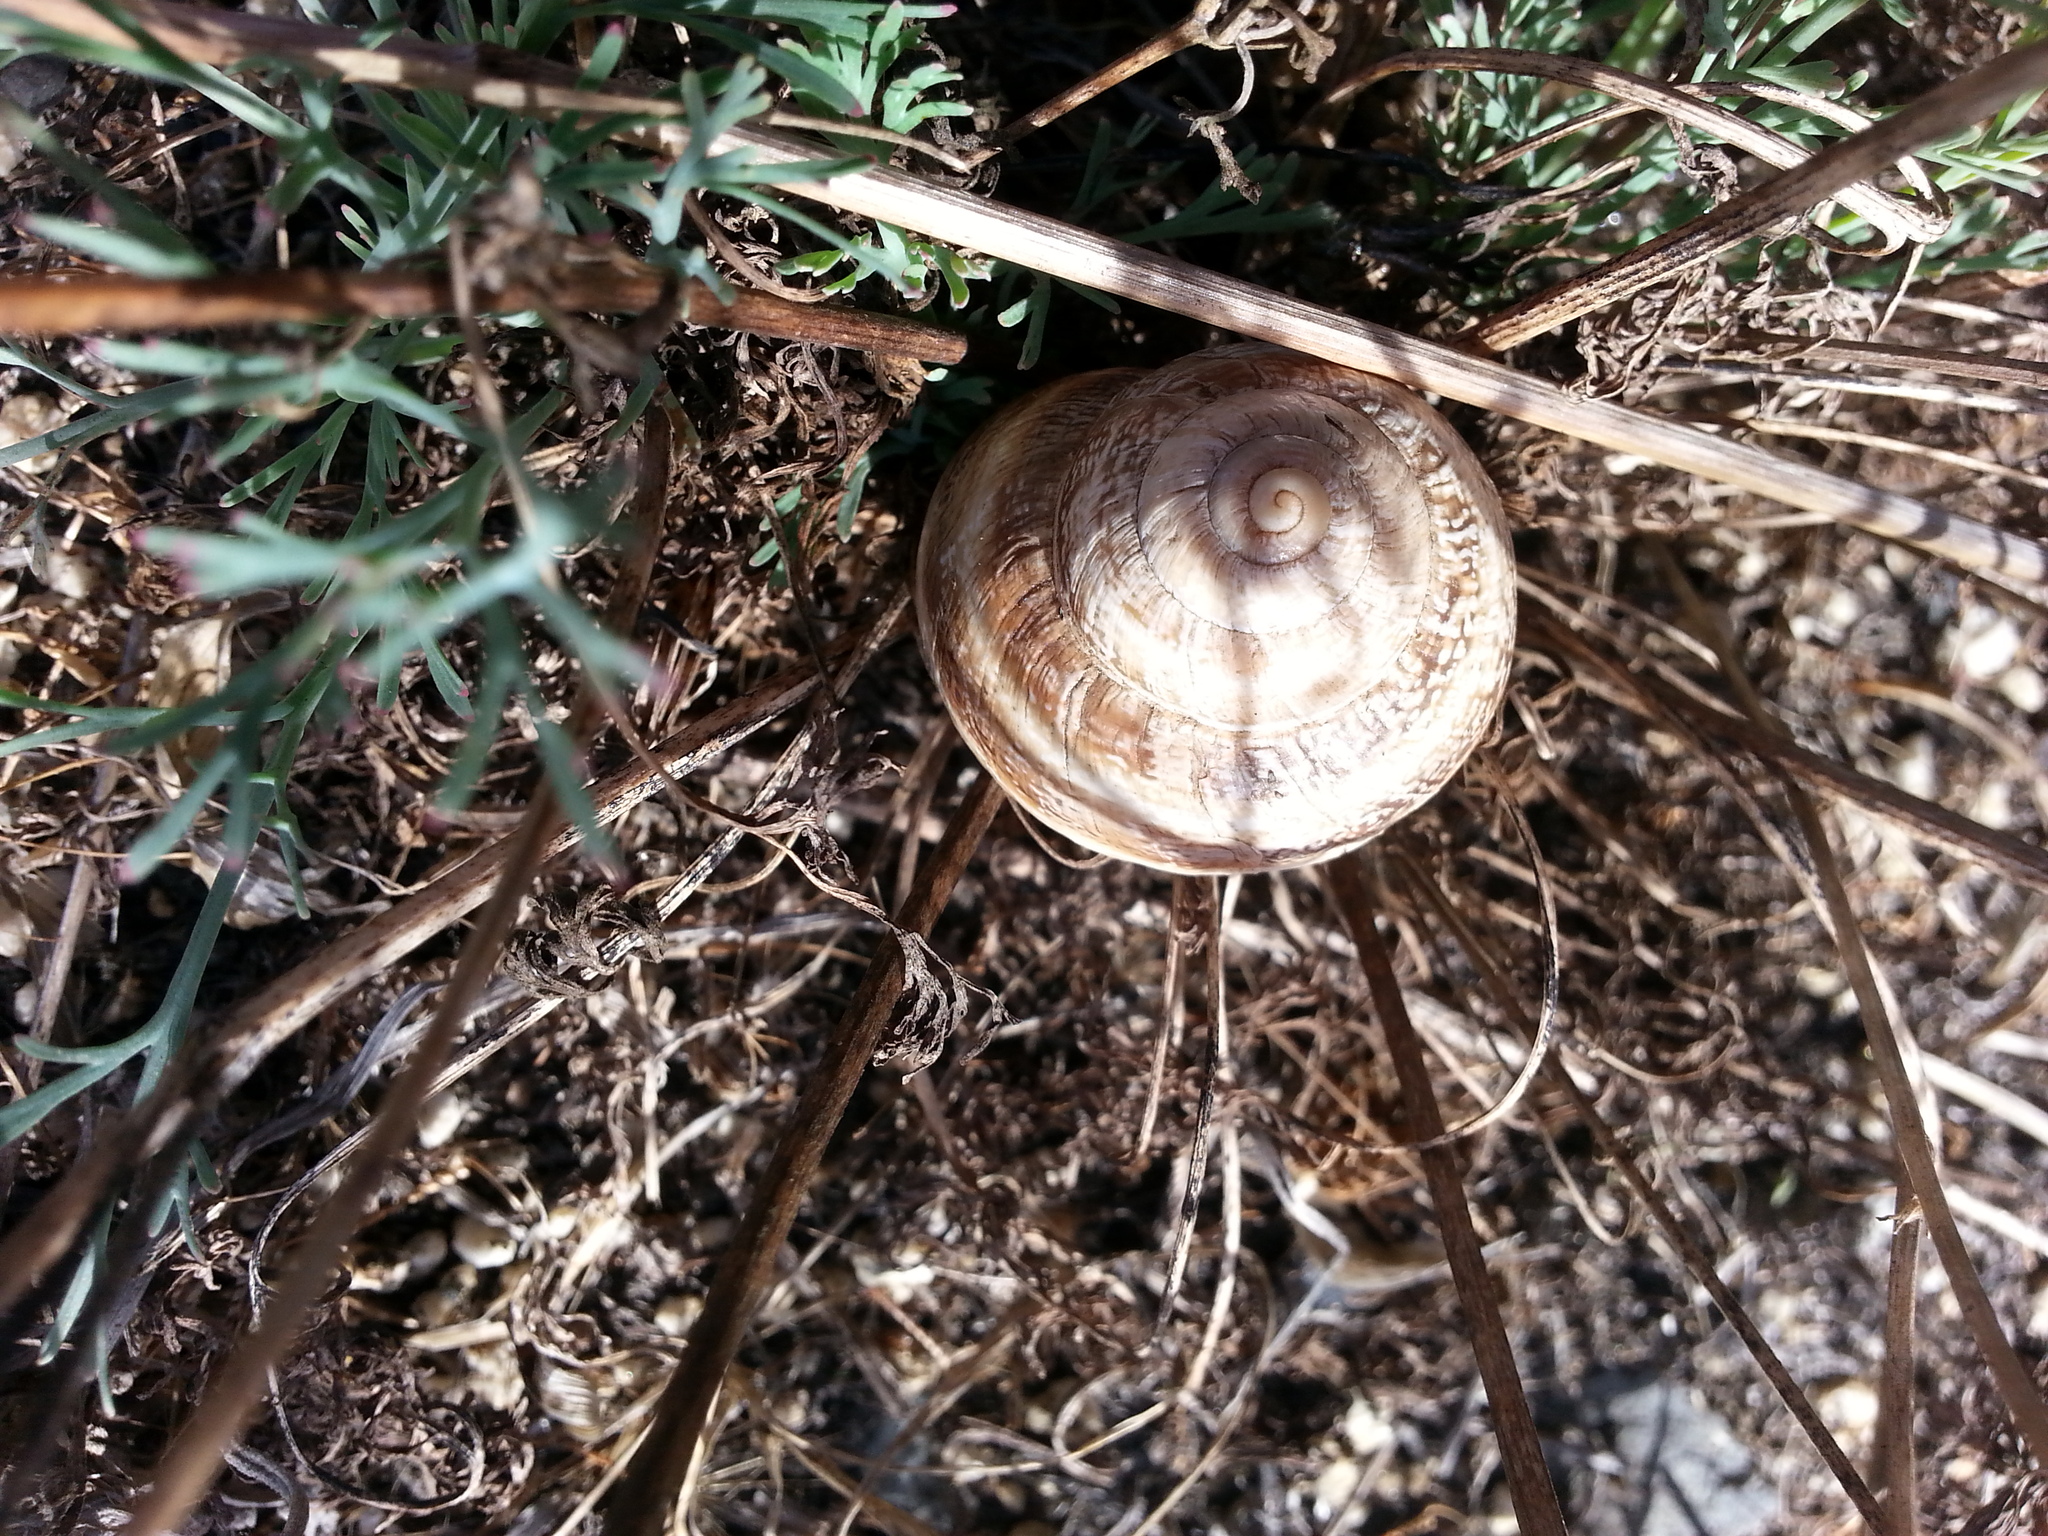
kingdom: Animalia
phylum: Mollusca
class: Gastropoda
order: Stylommatophora
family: Helicidae
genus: Otala
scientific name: Otala lactea
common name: Milk snail
